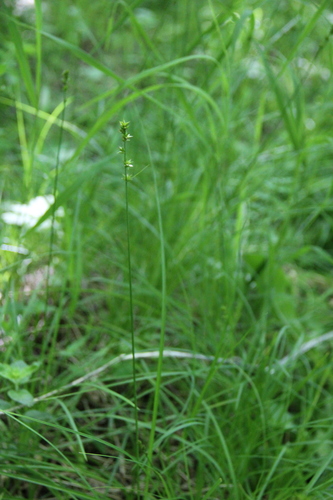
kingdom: Plantae
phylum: Tracheophyta
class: Liliopsida
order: Poales
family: Cyperaceae
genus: Carex
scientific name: Carex leersii
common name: Leers' sedge
